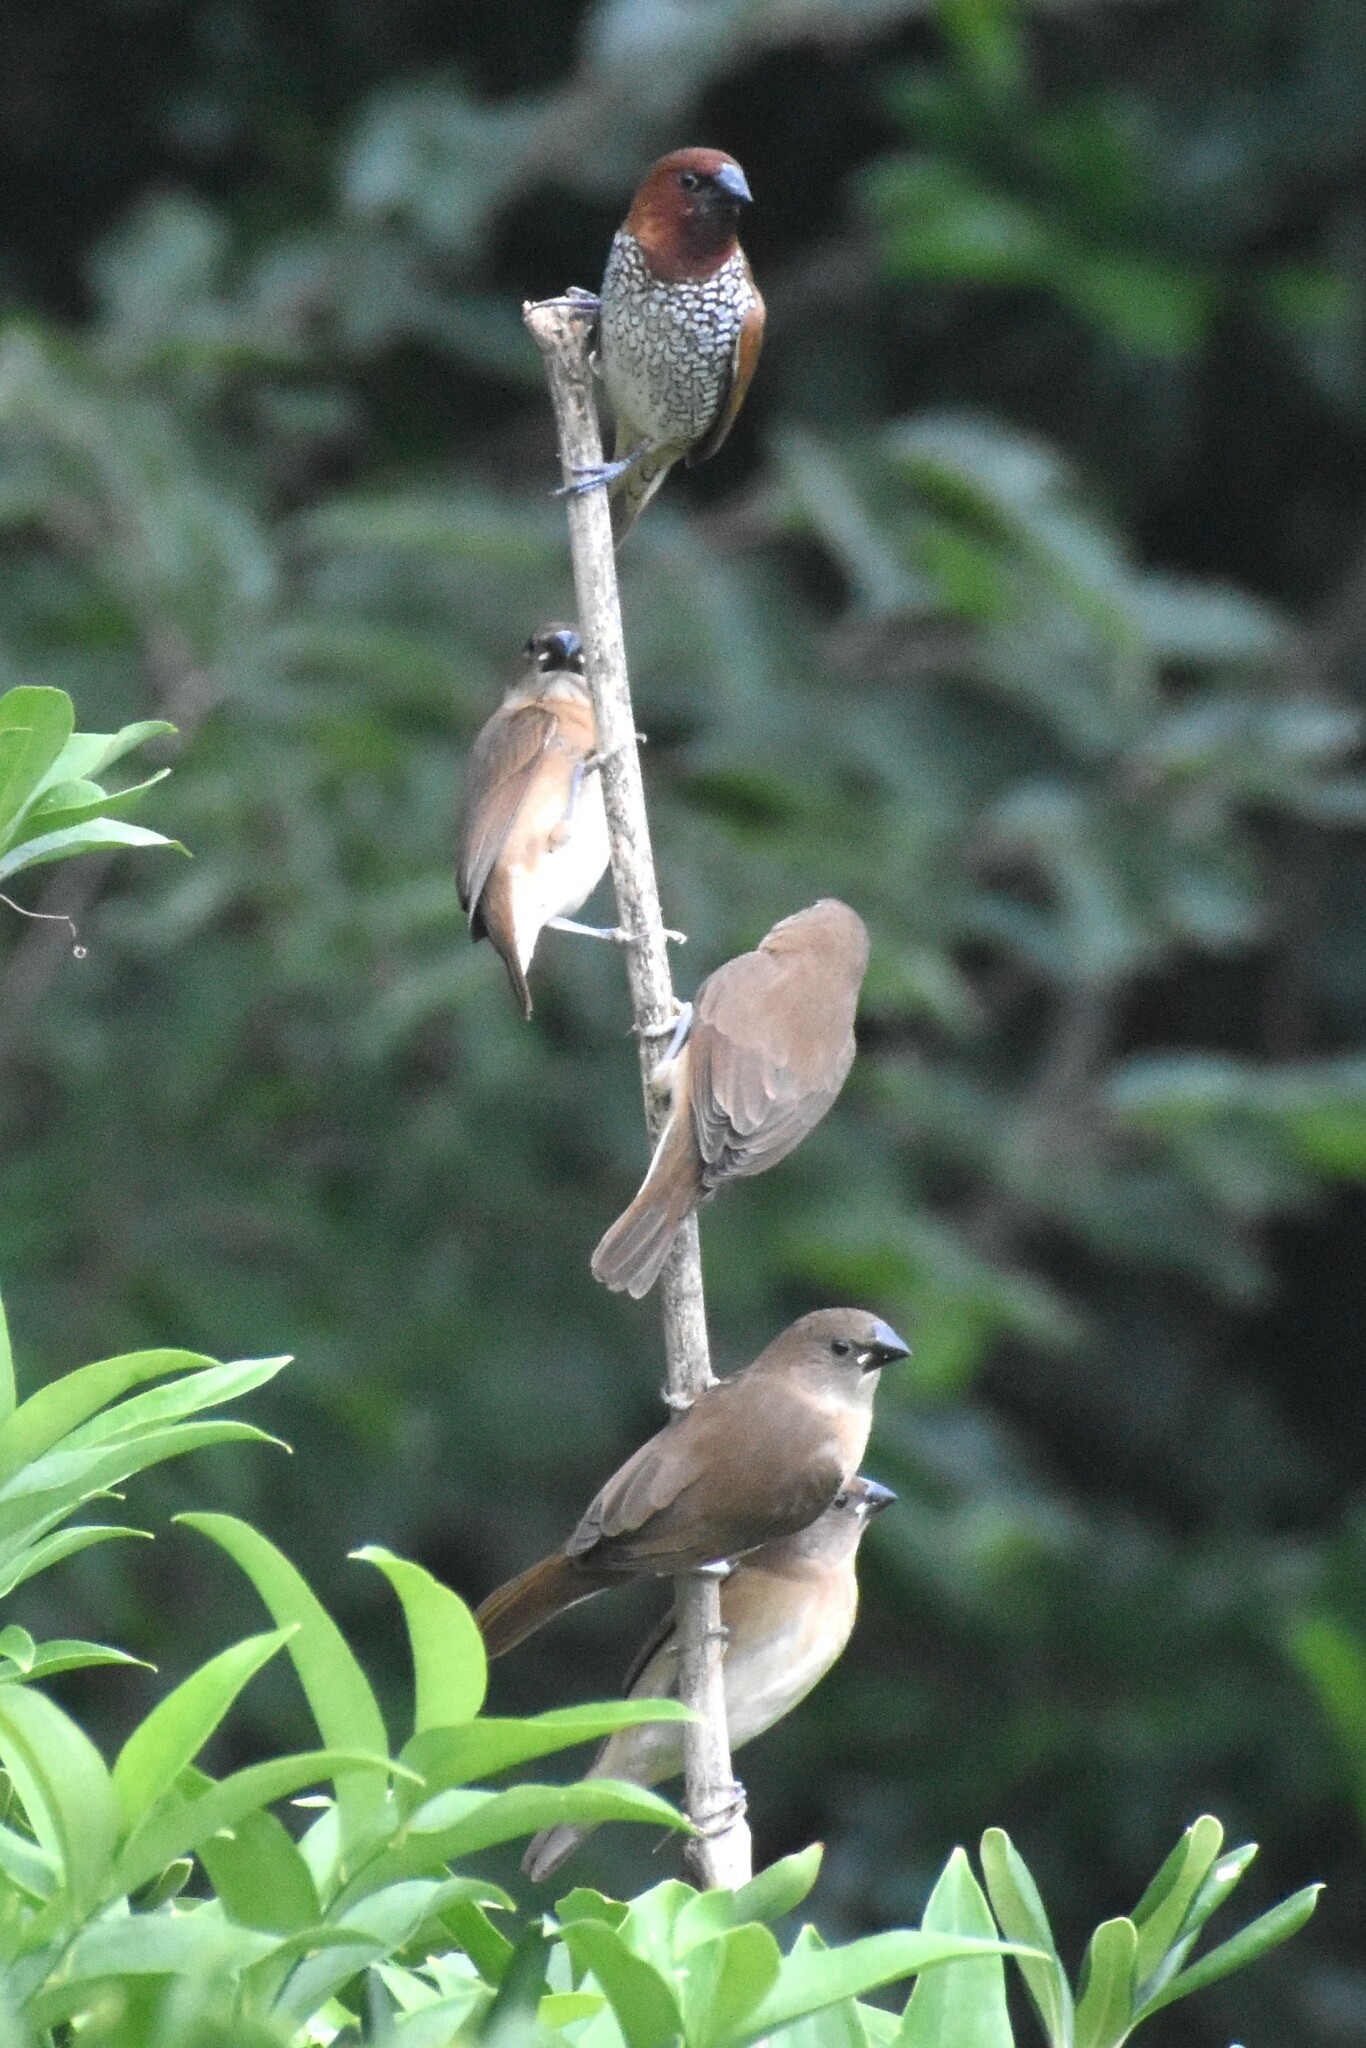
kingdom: Animalia
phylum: Chordata
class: Aves
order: Passeriformes
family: Estrildidae
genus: Lonchura
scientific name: Lonchura punctulata
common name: Scaly-breasted munia
